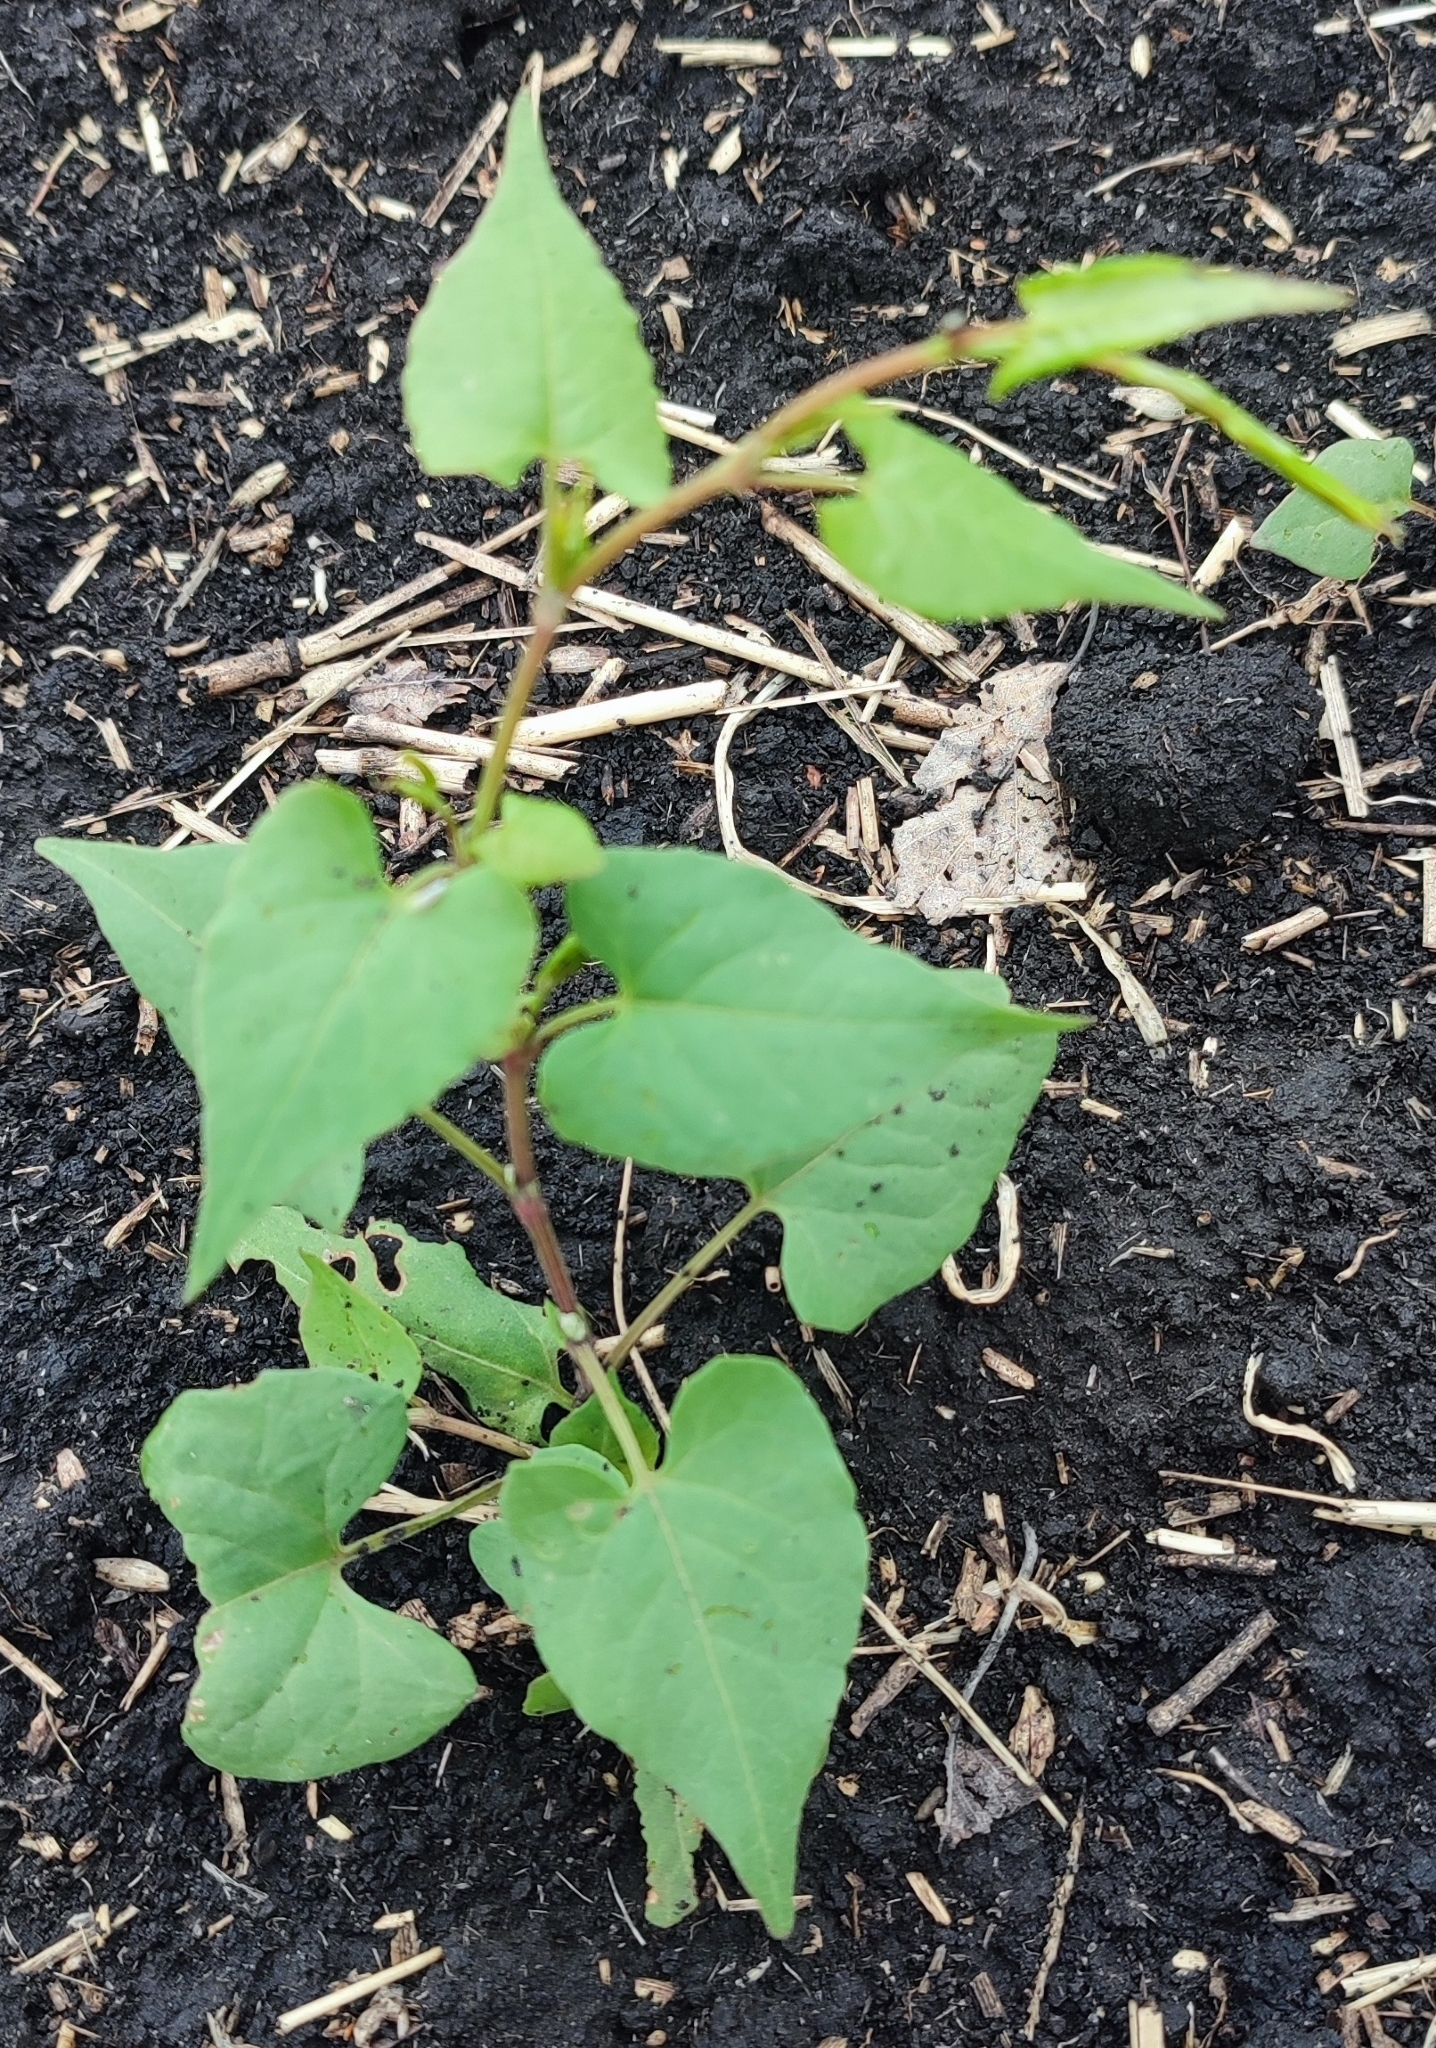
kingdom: Plantae
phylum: Tracheophyta
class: Magnoliopsida
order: Caryophyllales
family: Polygonaceae
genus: Fallopia
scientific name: Fallopia convolvulus
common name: Black bindweed
